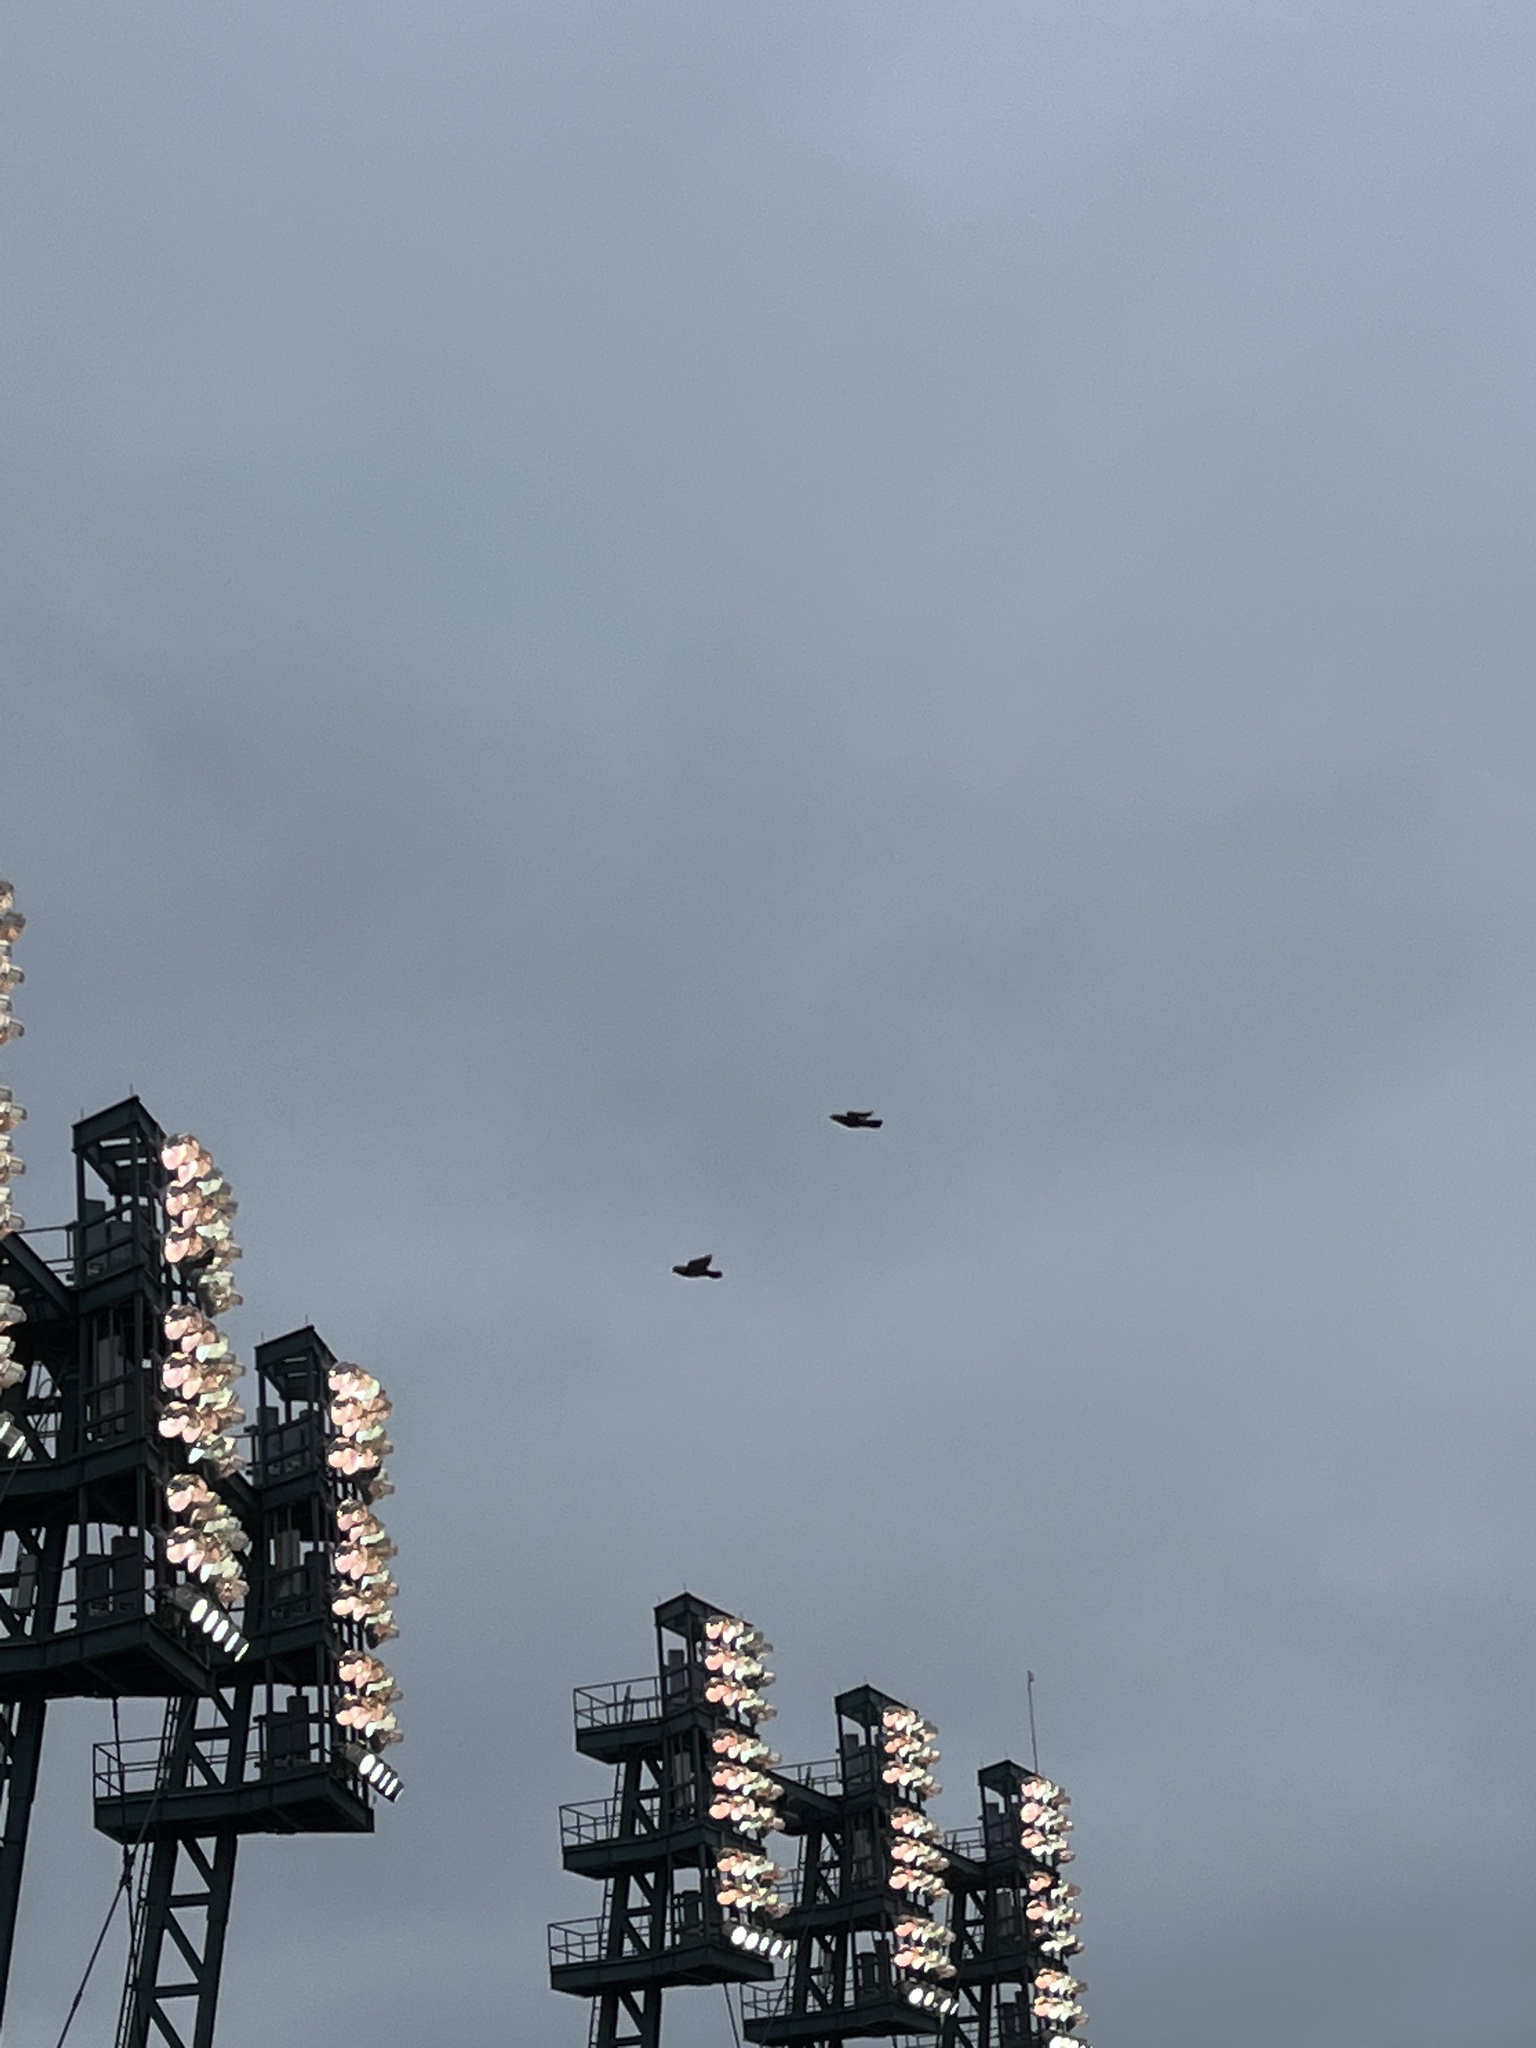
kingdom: Animalia
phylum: Chordata
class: Aves
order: Columbiformes
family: Columbidae
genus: Columba
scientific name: Columba livia
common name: Rock pigeon
